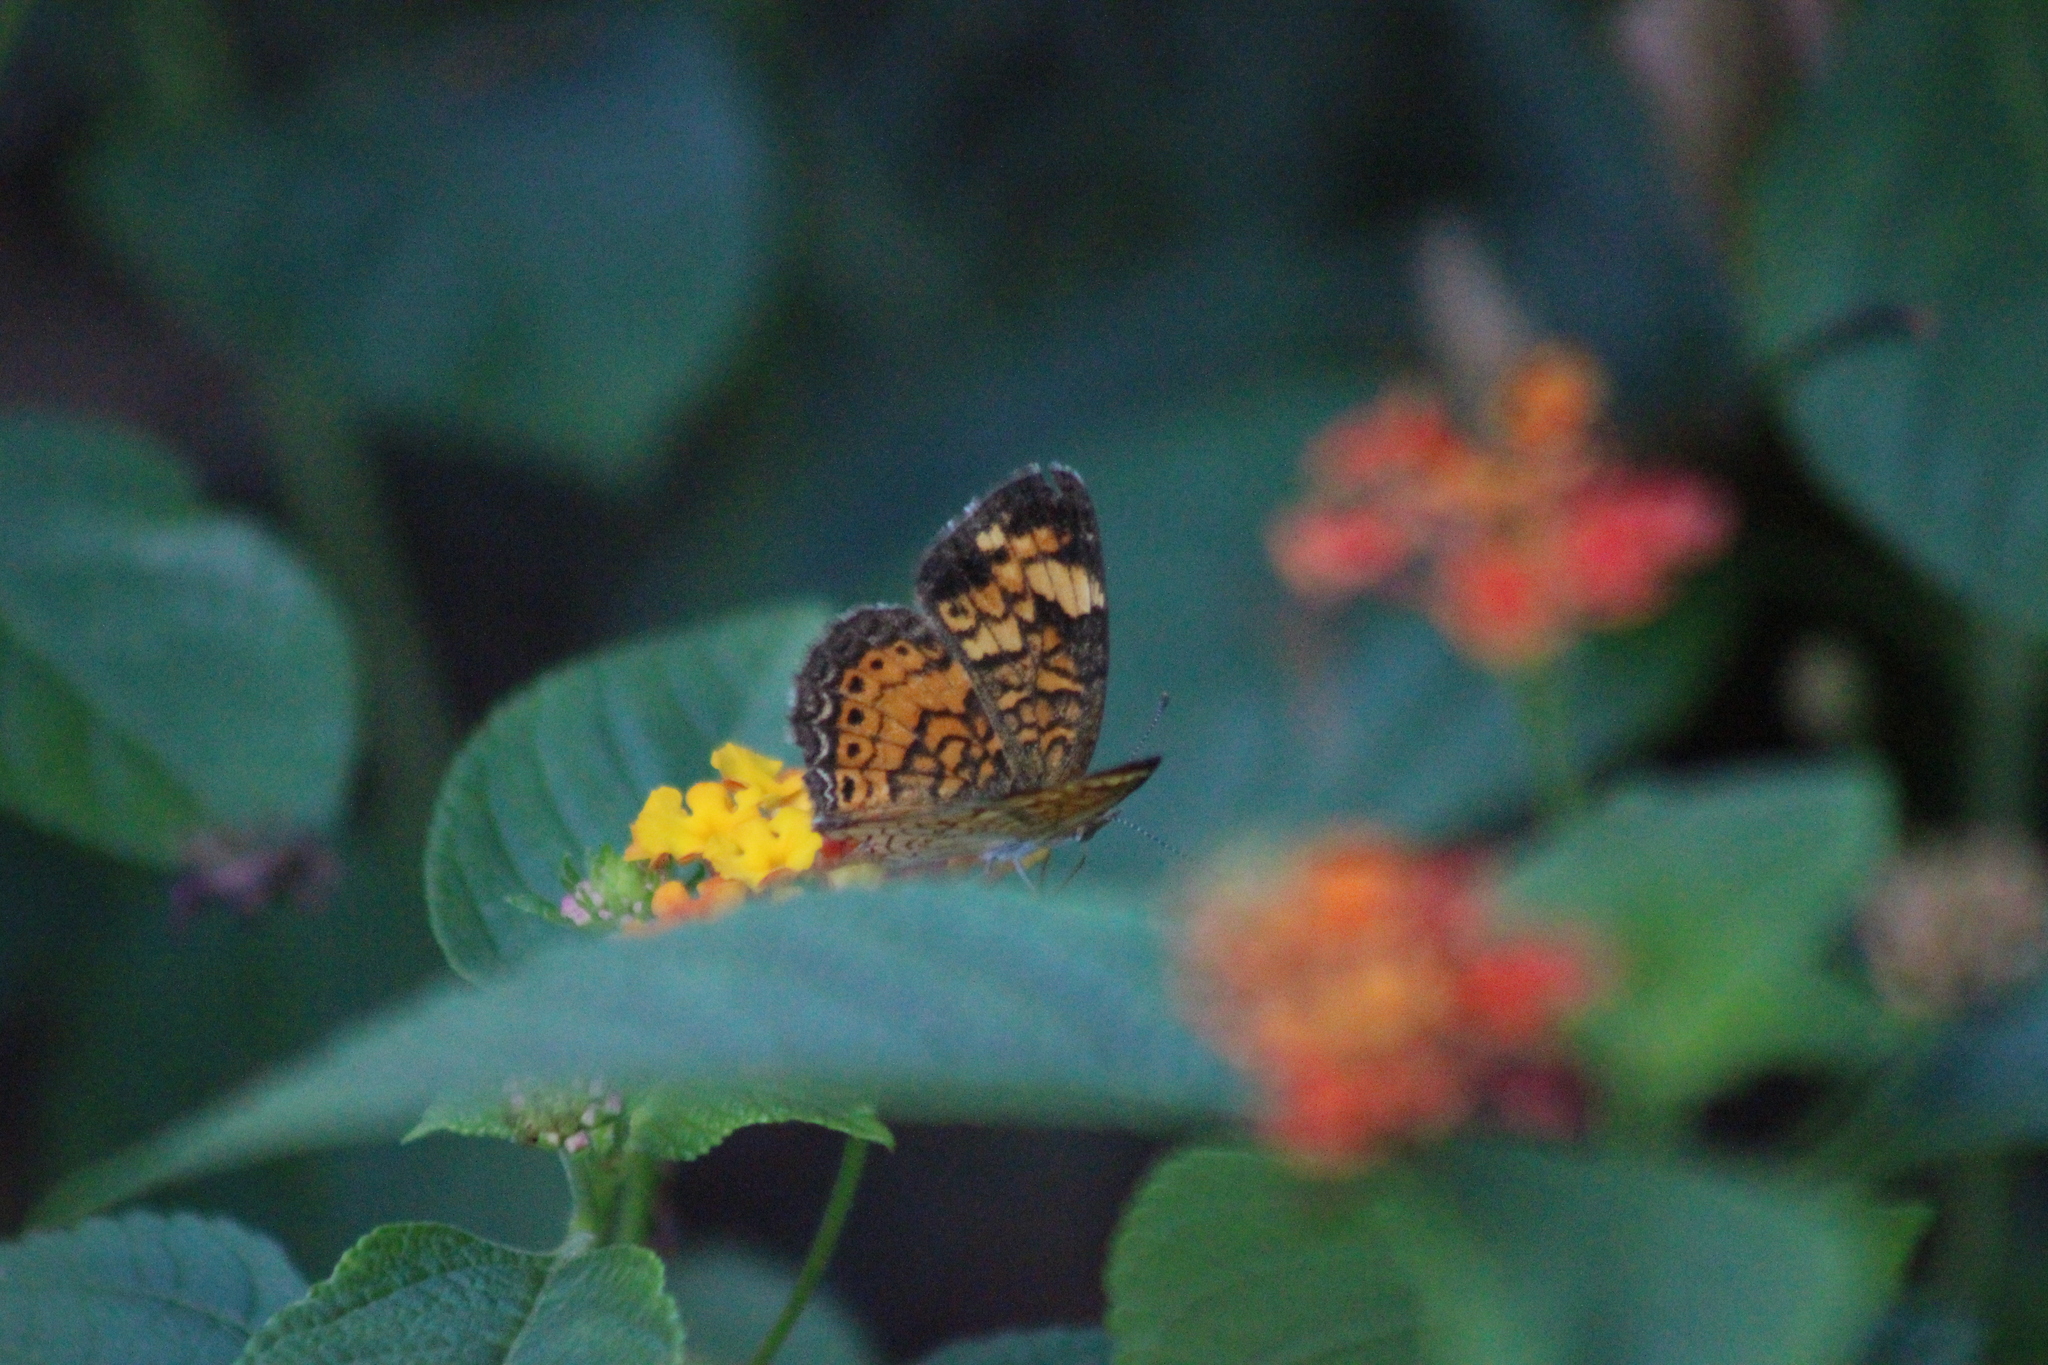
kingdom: Animalia
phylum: Arthropoda
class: Insecta
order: Lepidoptera
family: Nymphalidae
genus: Phyciodes
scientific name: Phyciodes tharos
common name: Pearl crescent
